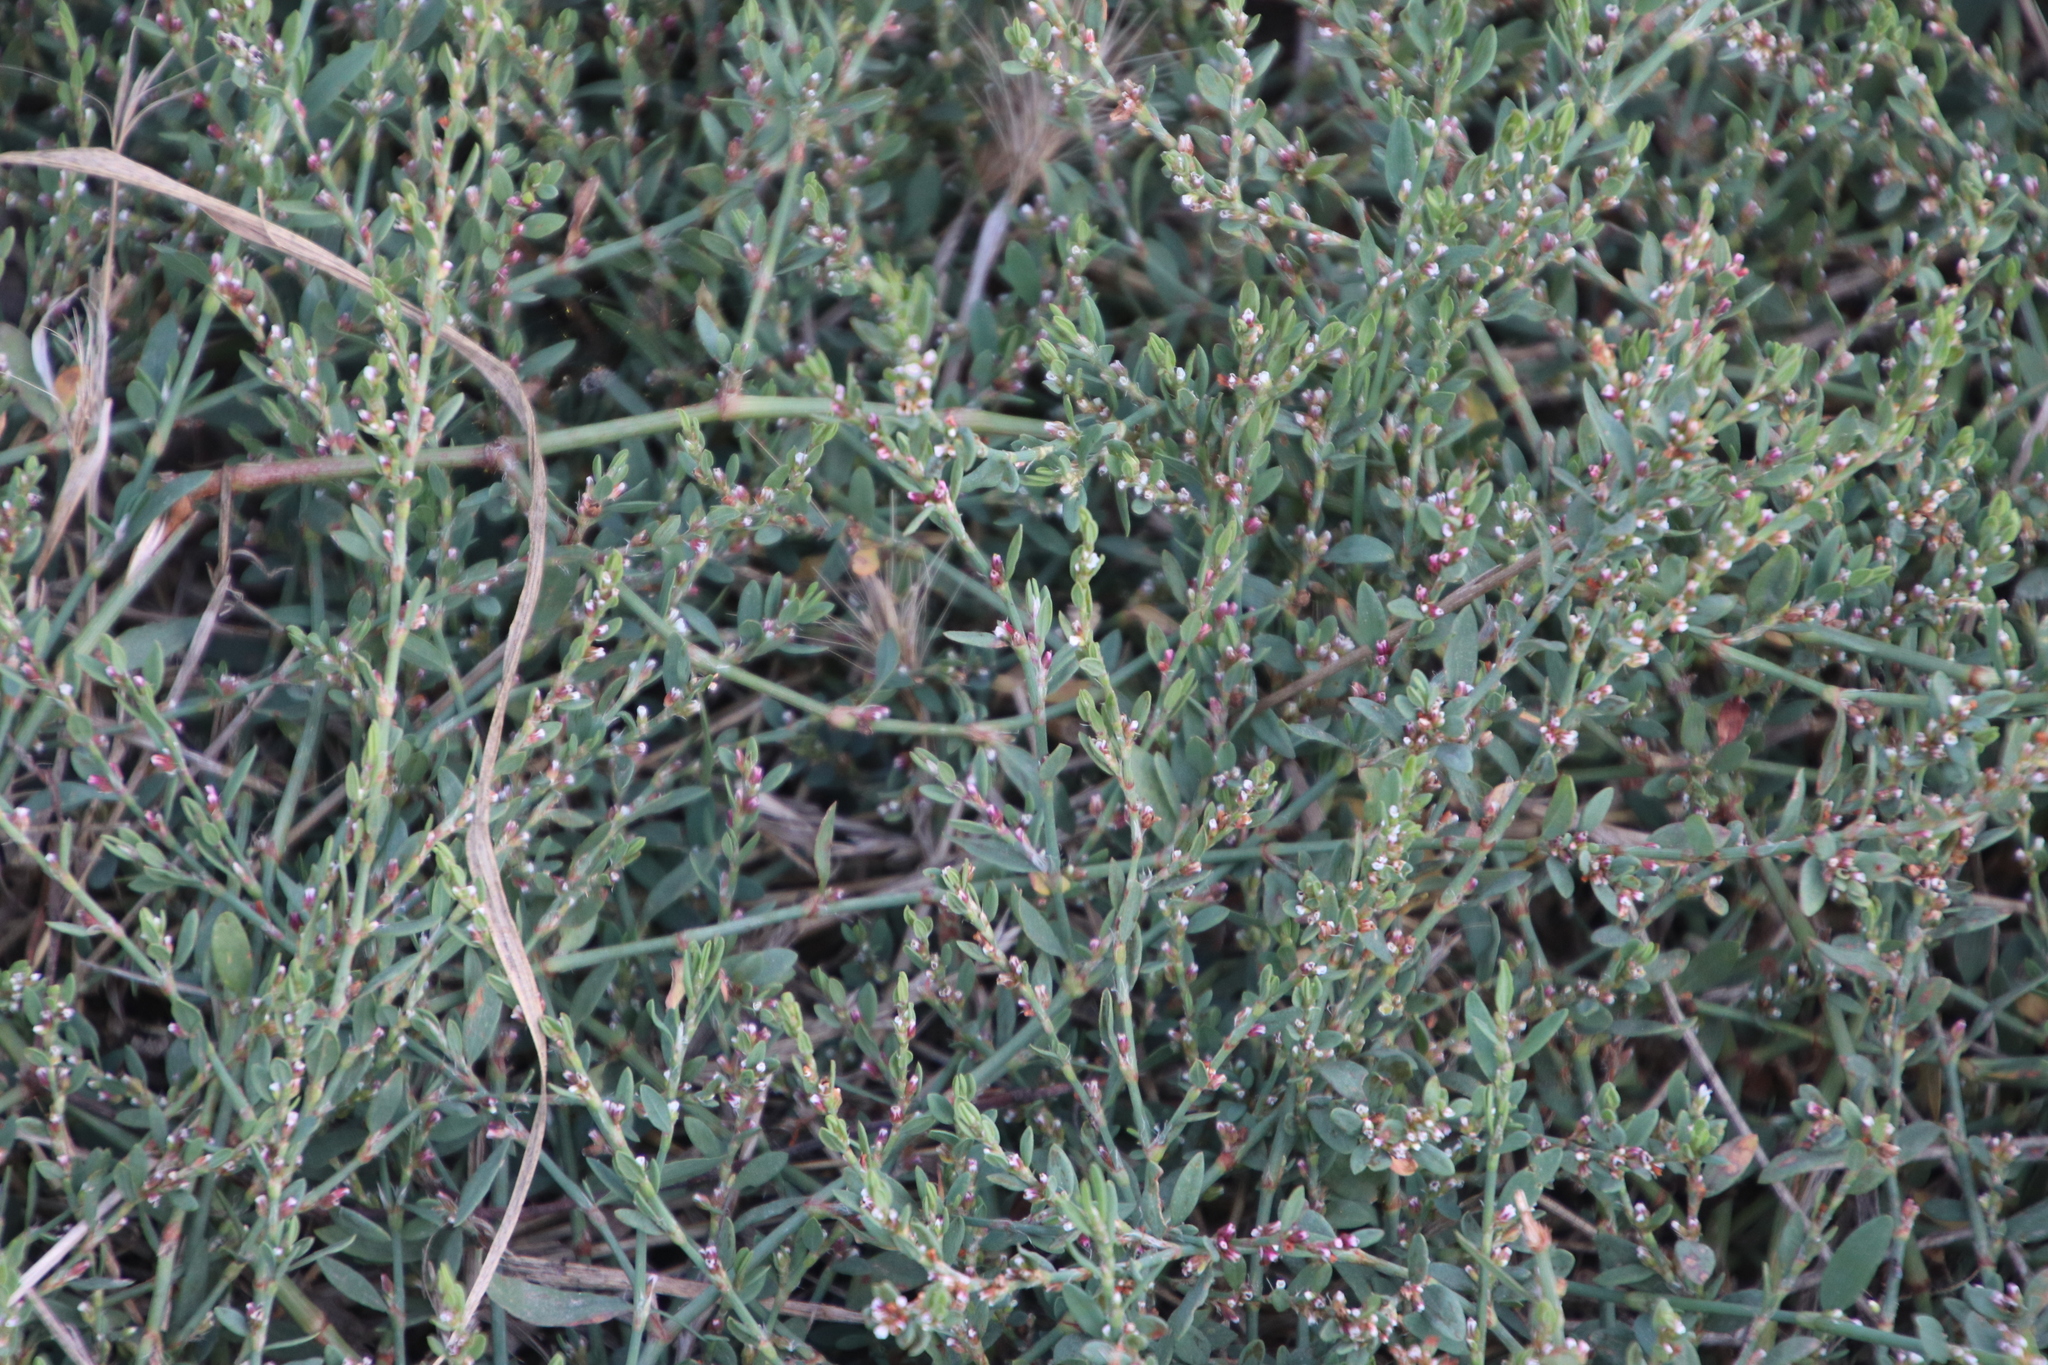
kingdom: Plantae
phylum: Tracheophyta
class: Magnoliopsida
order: Caryophyllales
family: Polygonaceae
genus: Polygonum
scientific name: Polygonum aviculare
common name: Prostrate knotweed
